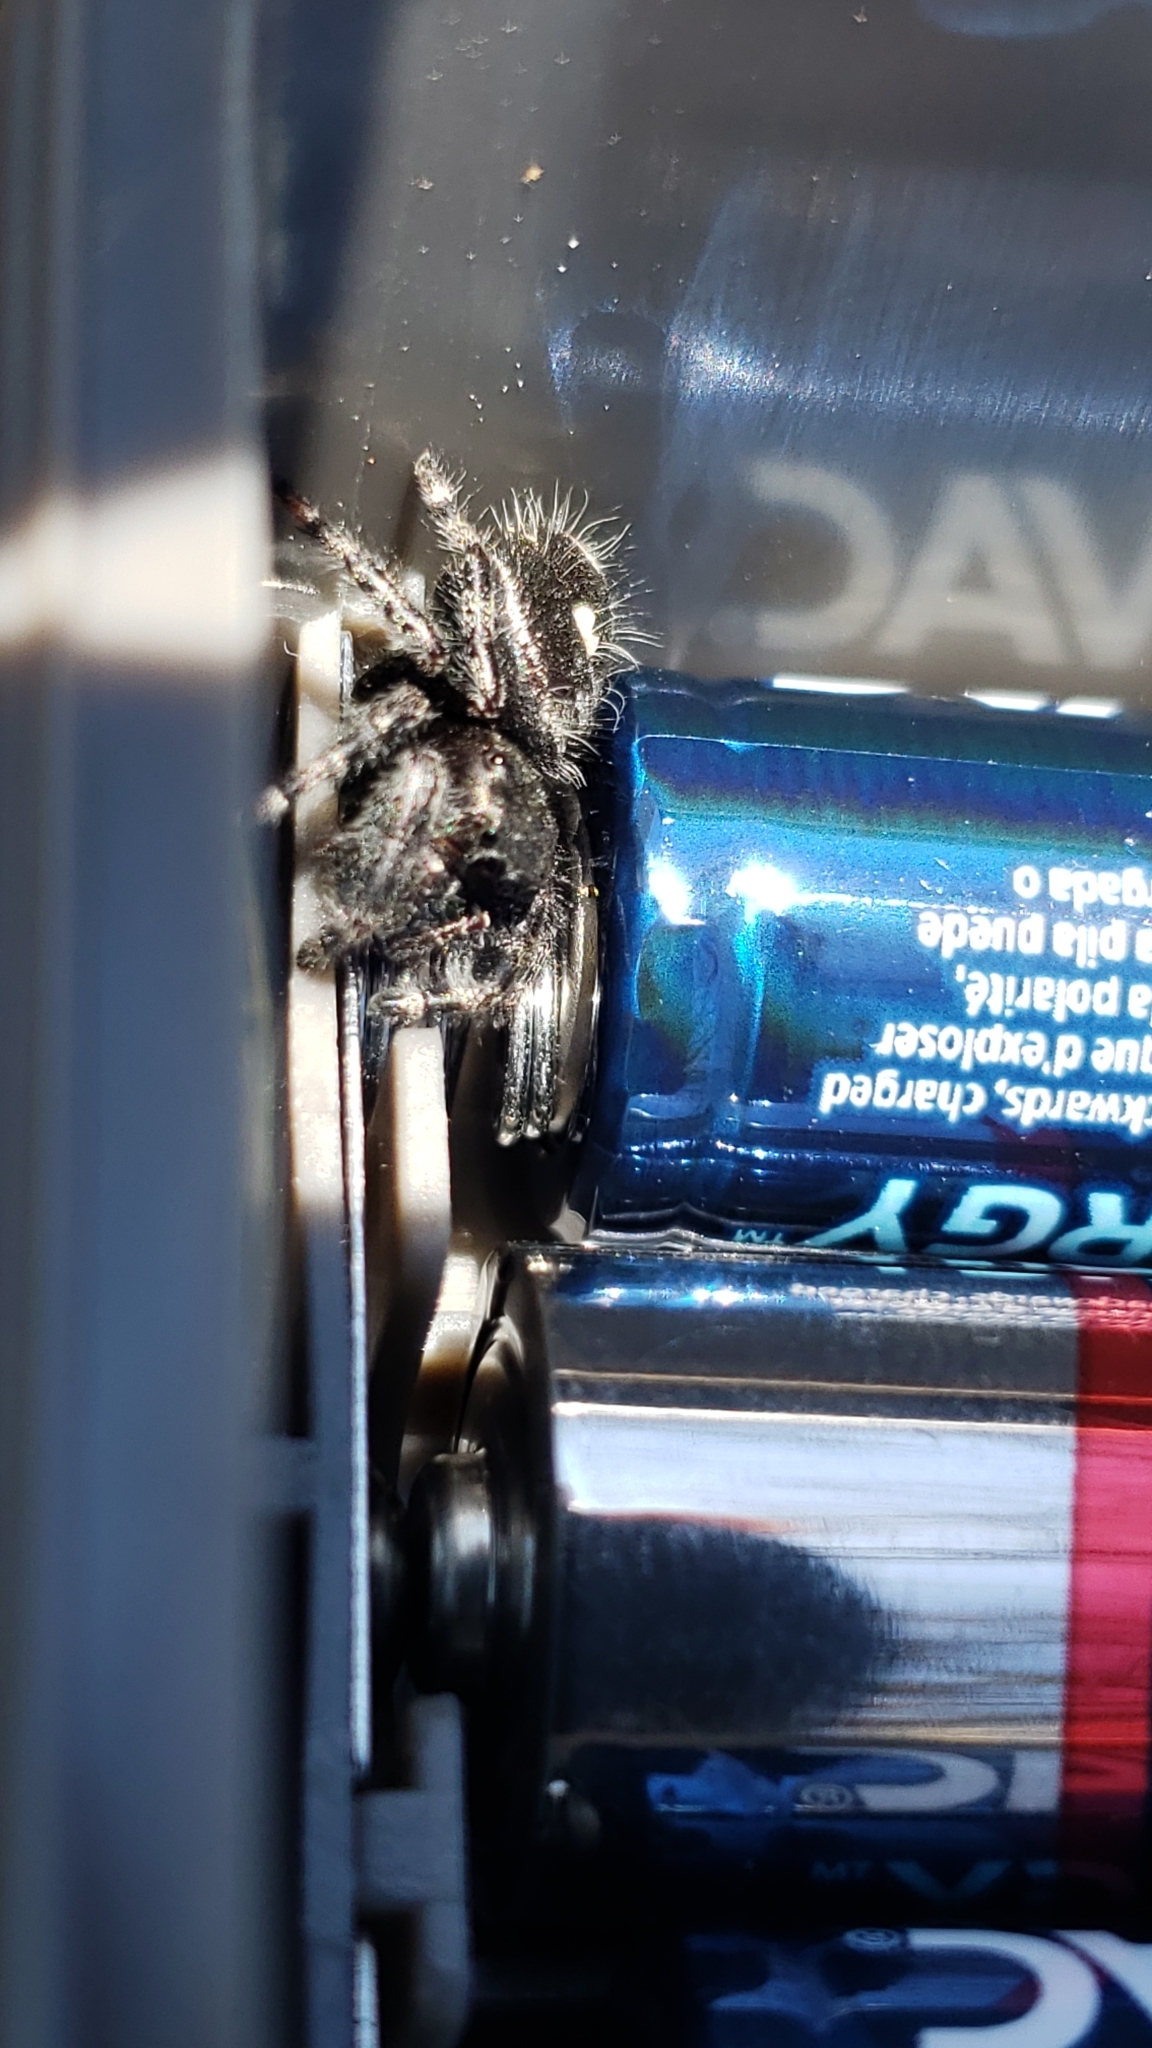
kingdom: Animalia
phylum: Arthropoda
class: Arachnida
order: Araneae
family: Salticidae
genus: Phidippus
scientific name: Phidippus audax
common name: Bold jumper
